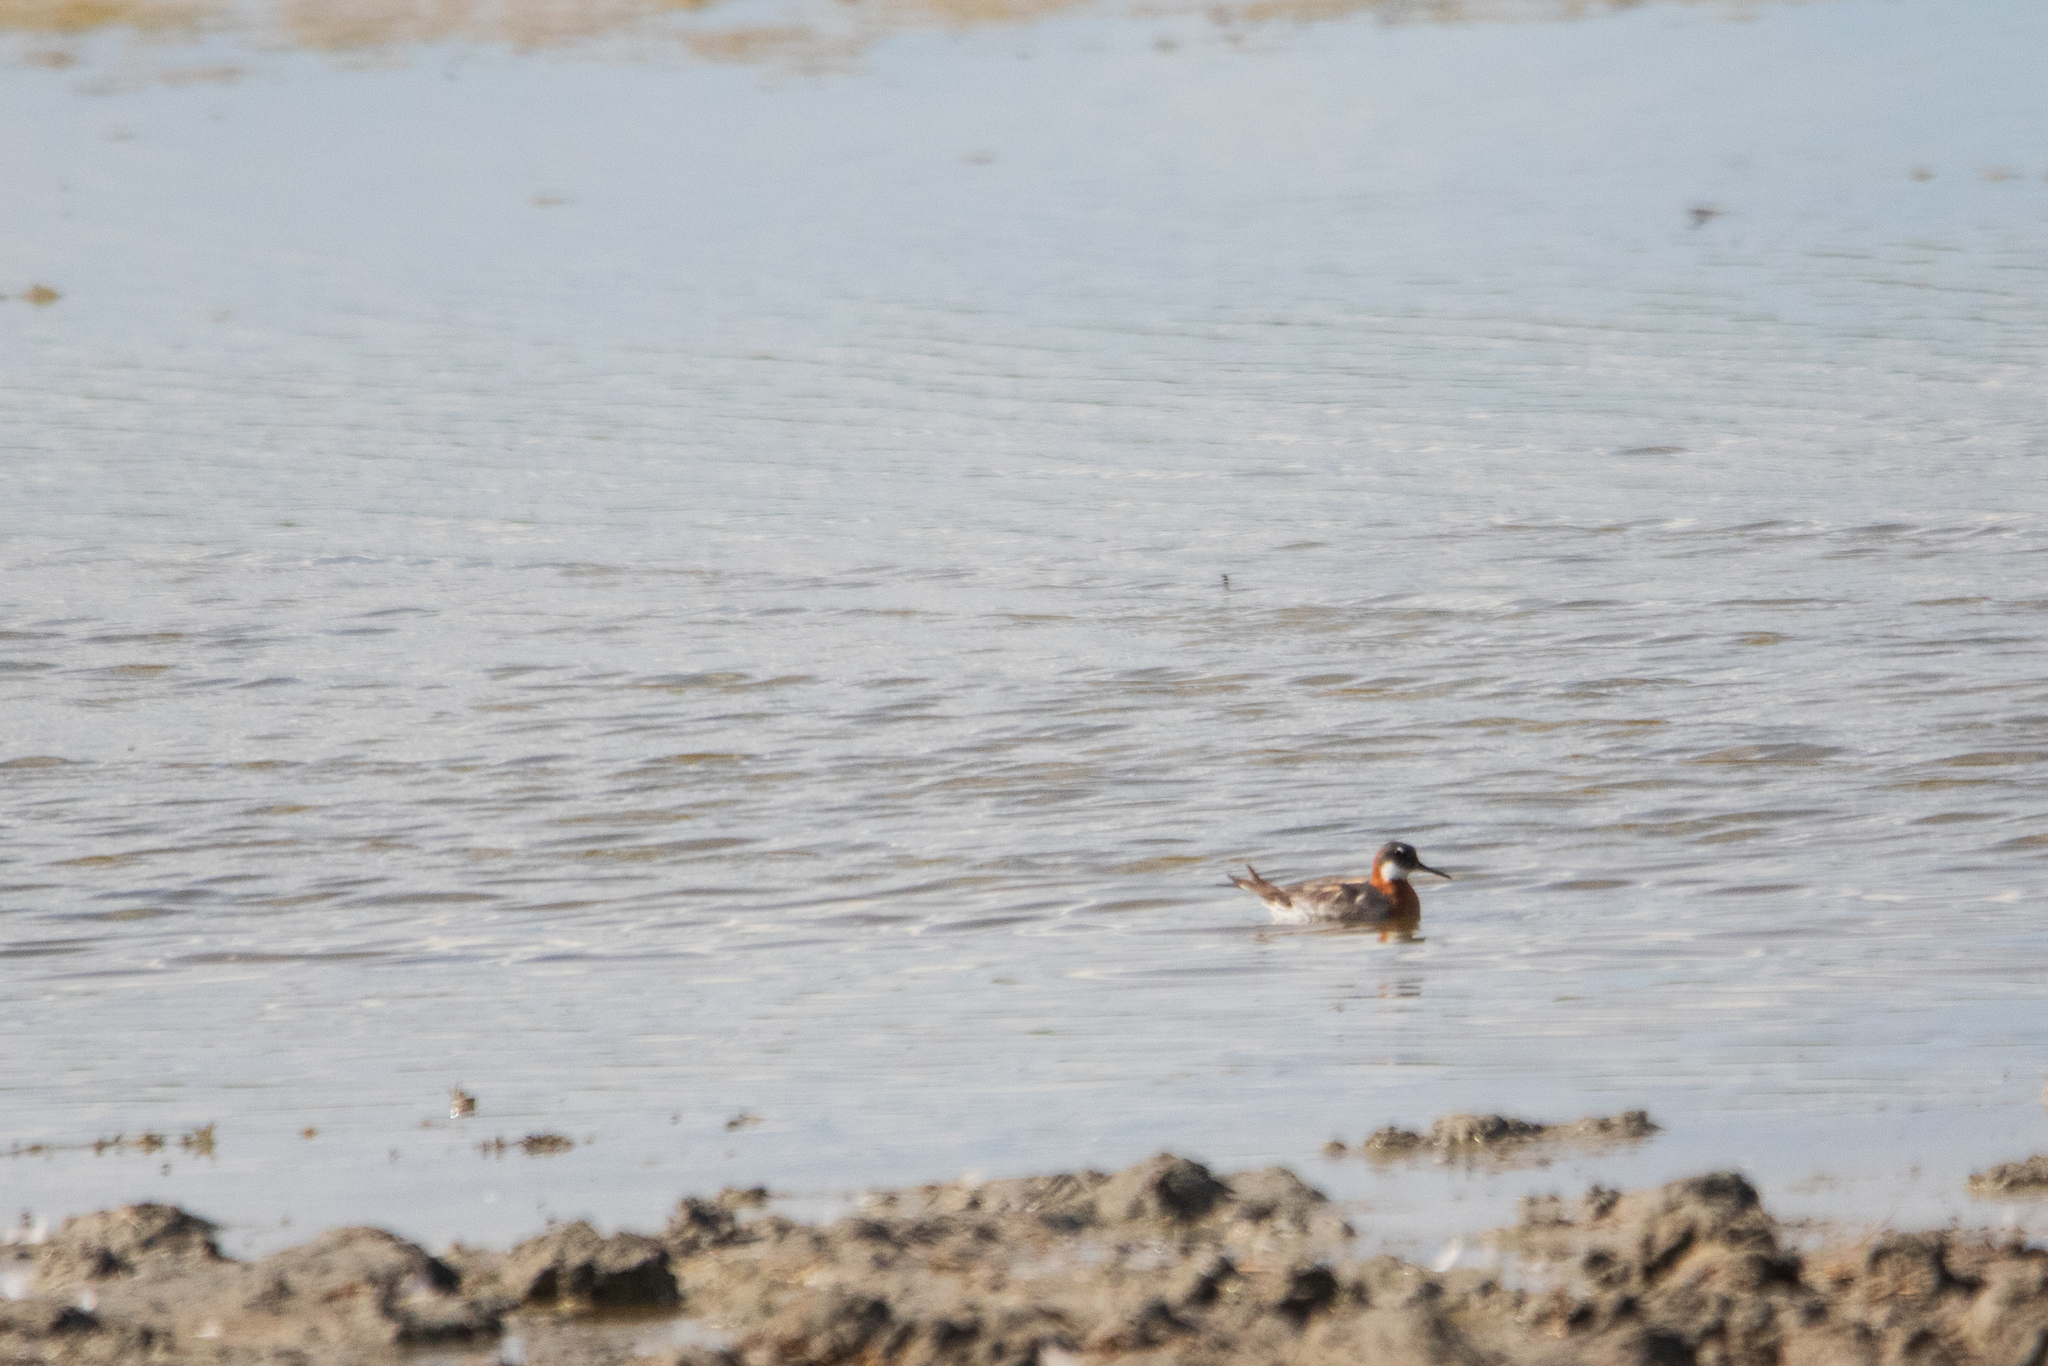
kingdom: Animalia
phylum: Chordata
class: Aves
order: Charadriiformes
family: Scolopacidae
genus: Phalaropus
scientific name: Phalaropus lobatus
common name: Red-necked phalarope
